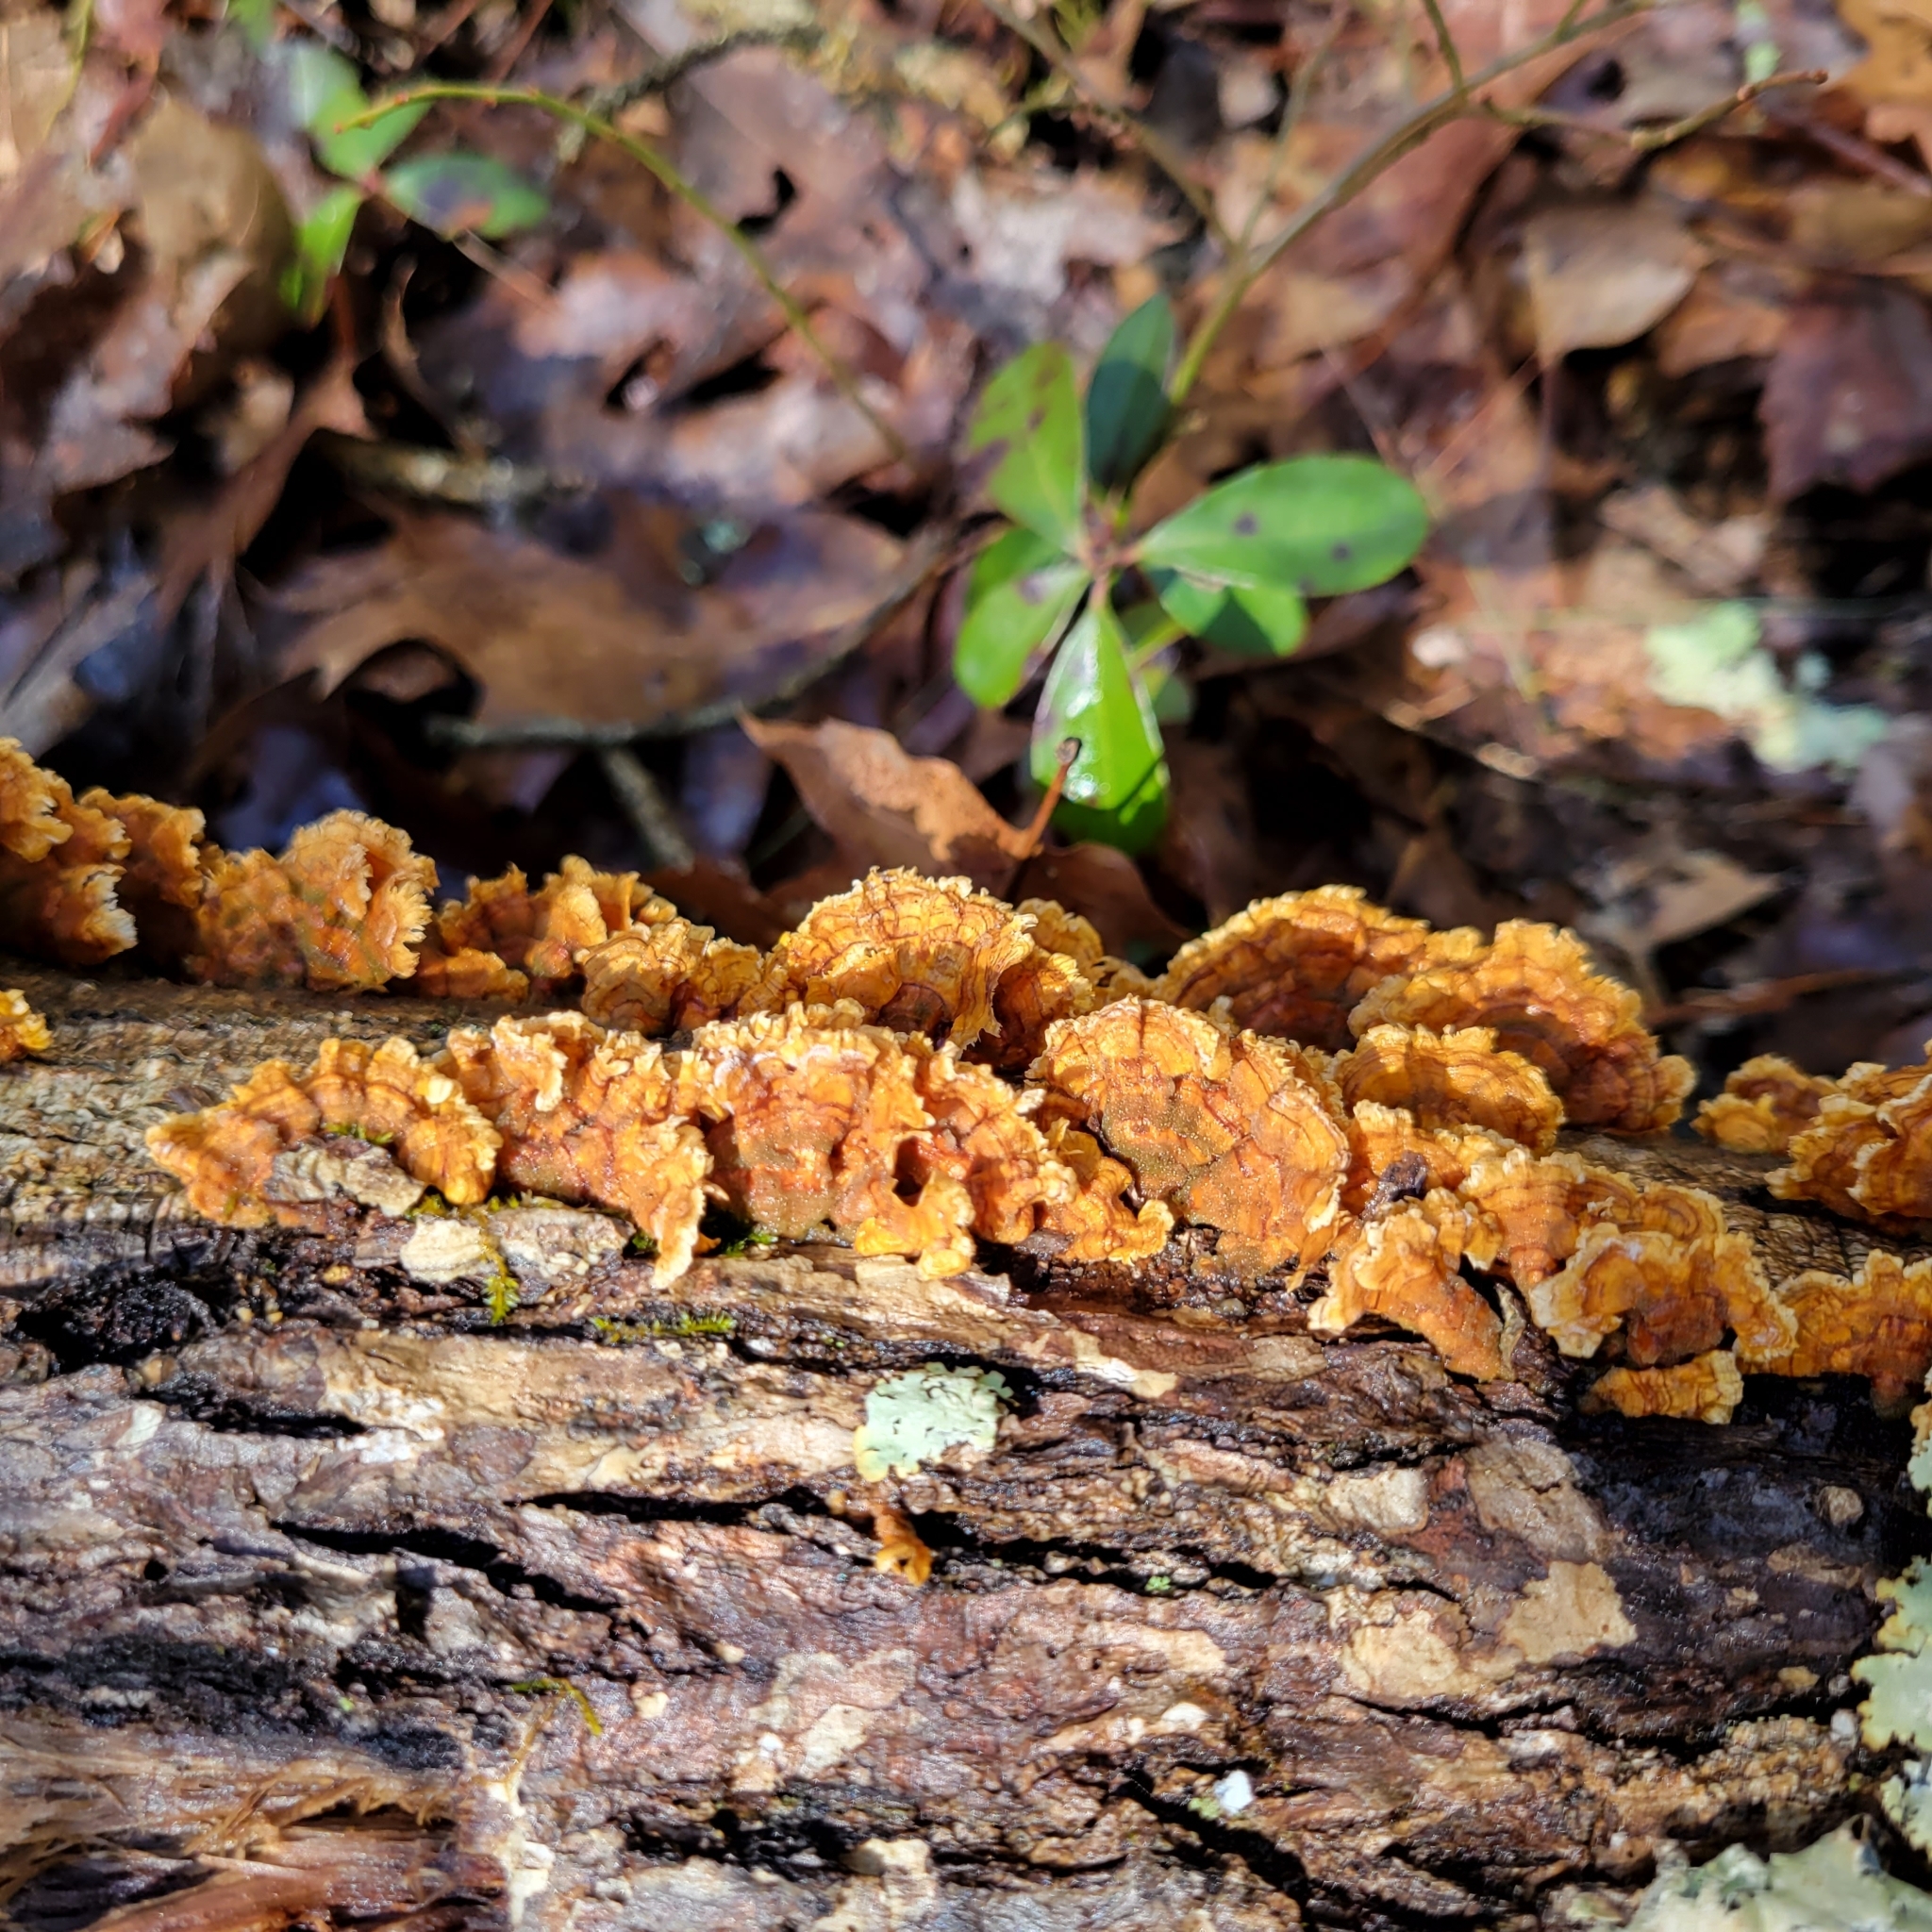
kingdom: Fungi
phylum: Basidiomycota
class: Agaricomycetes
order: Russulales
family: Stereaceae
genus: Stereum
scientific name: Stereum complicatum
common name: Crowded parchment
